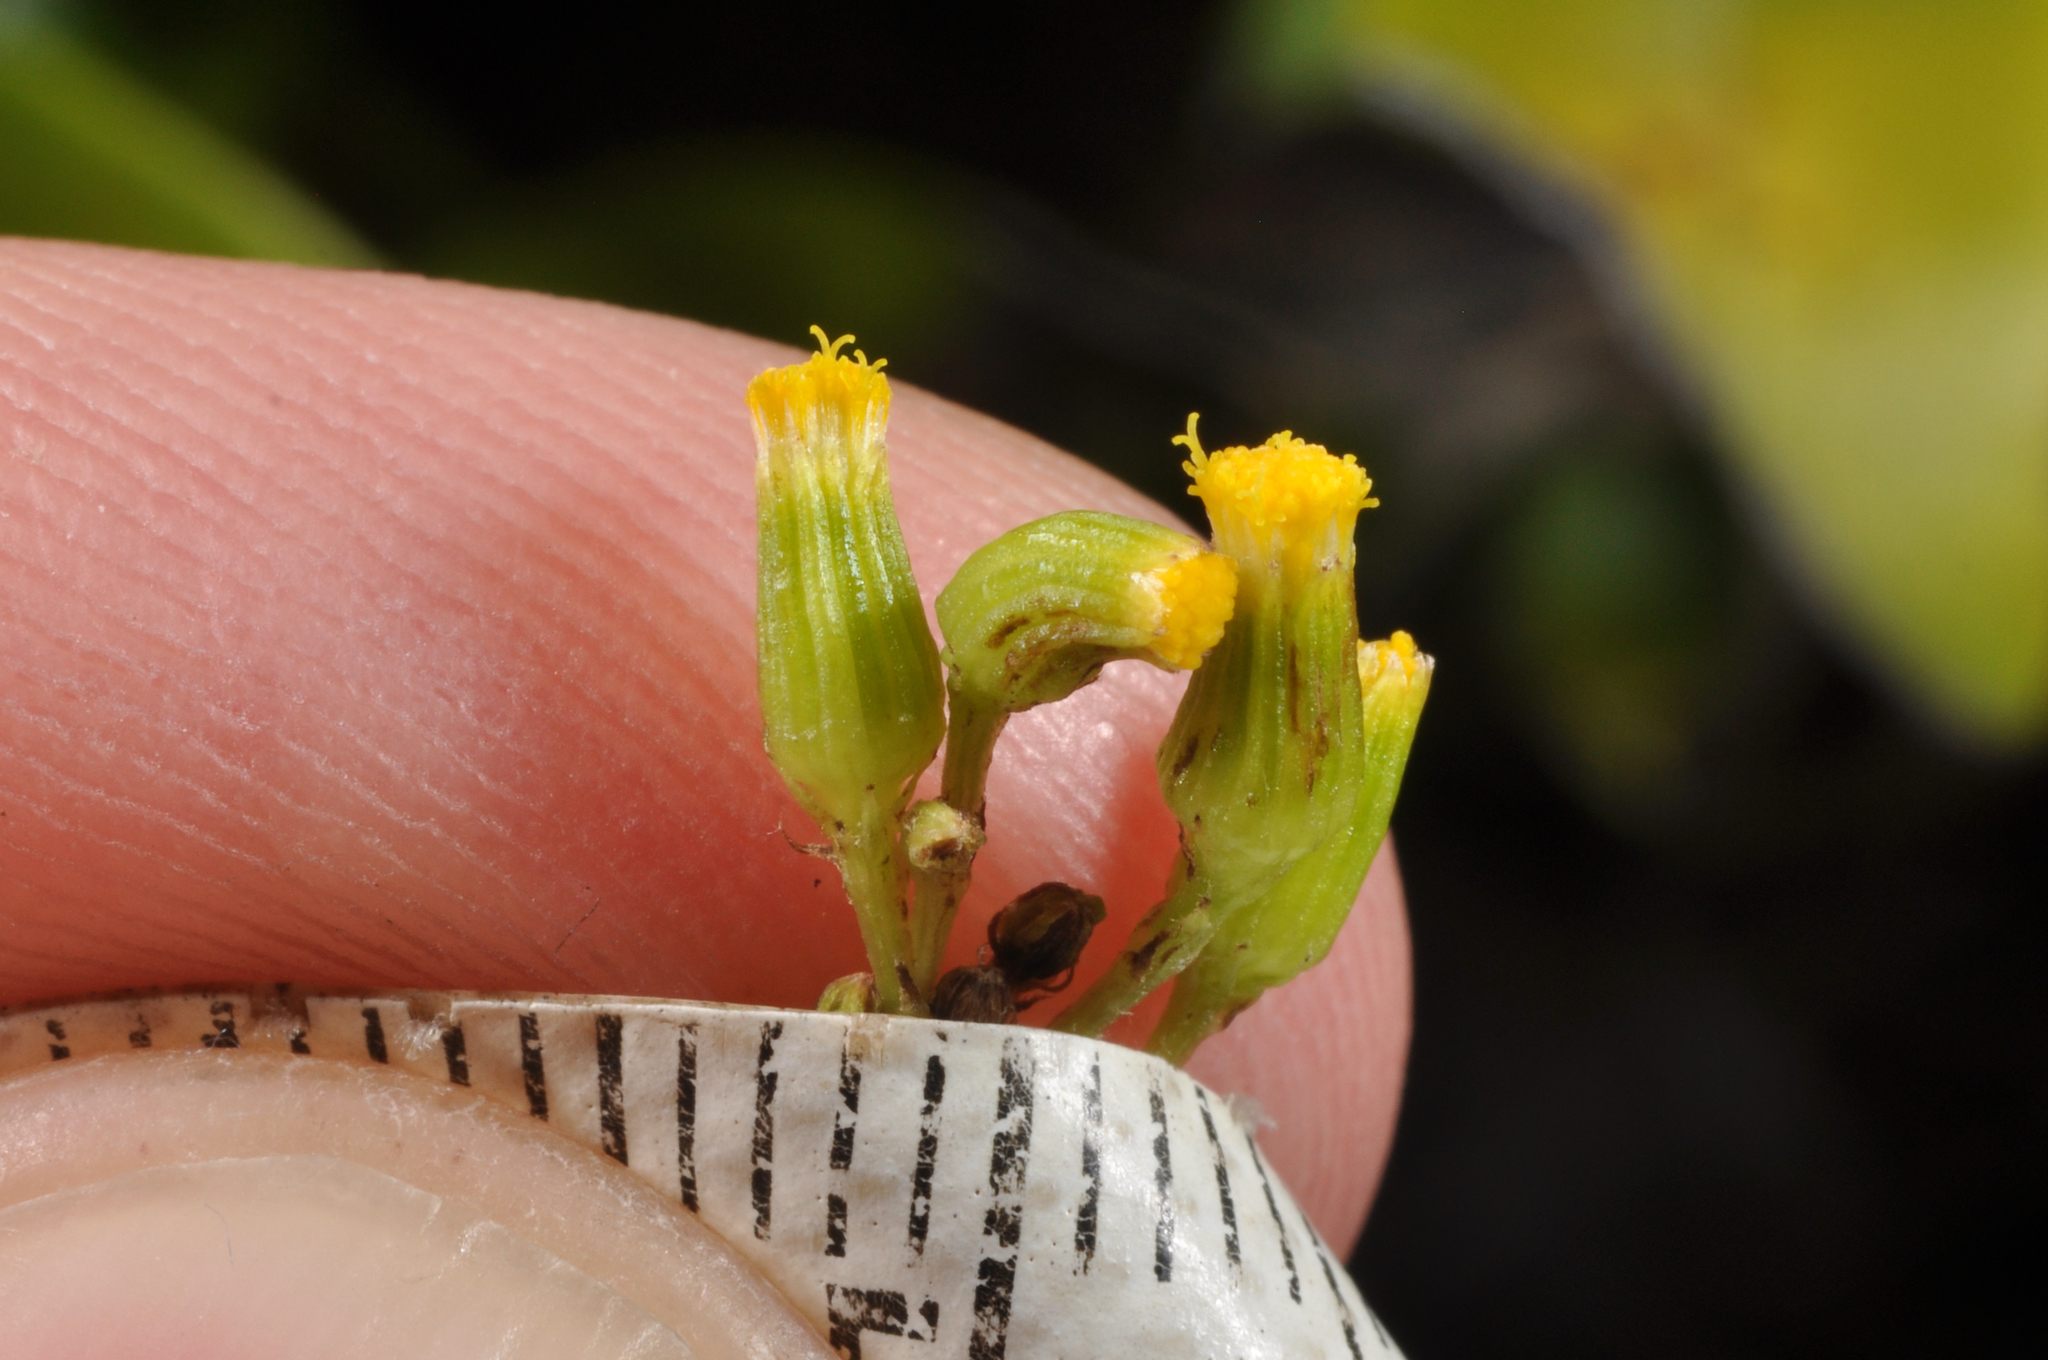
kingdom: Plantae
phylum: Tracheophyta
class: Magnoliopsida
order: Asterales
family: Asteraceae
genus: Senecio
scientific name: Senecio hispidulus
